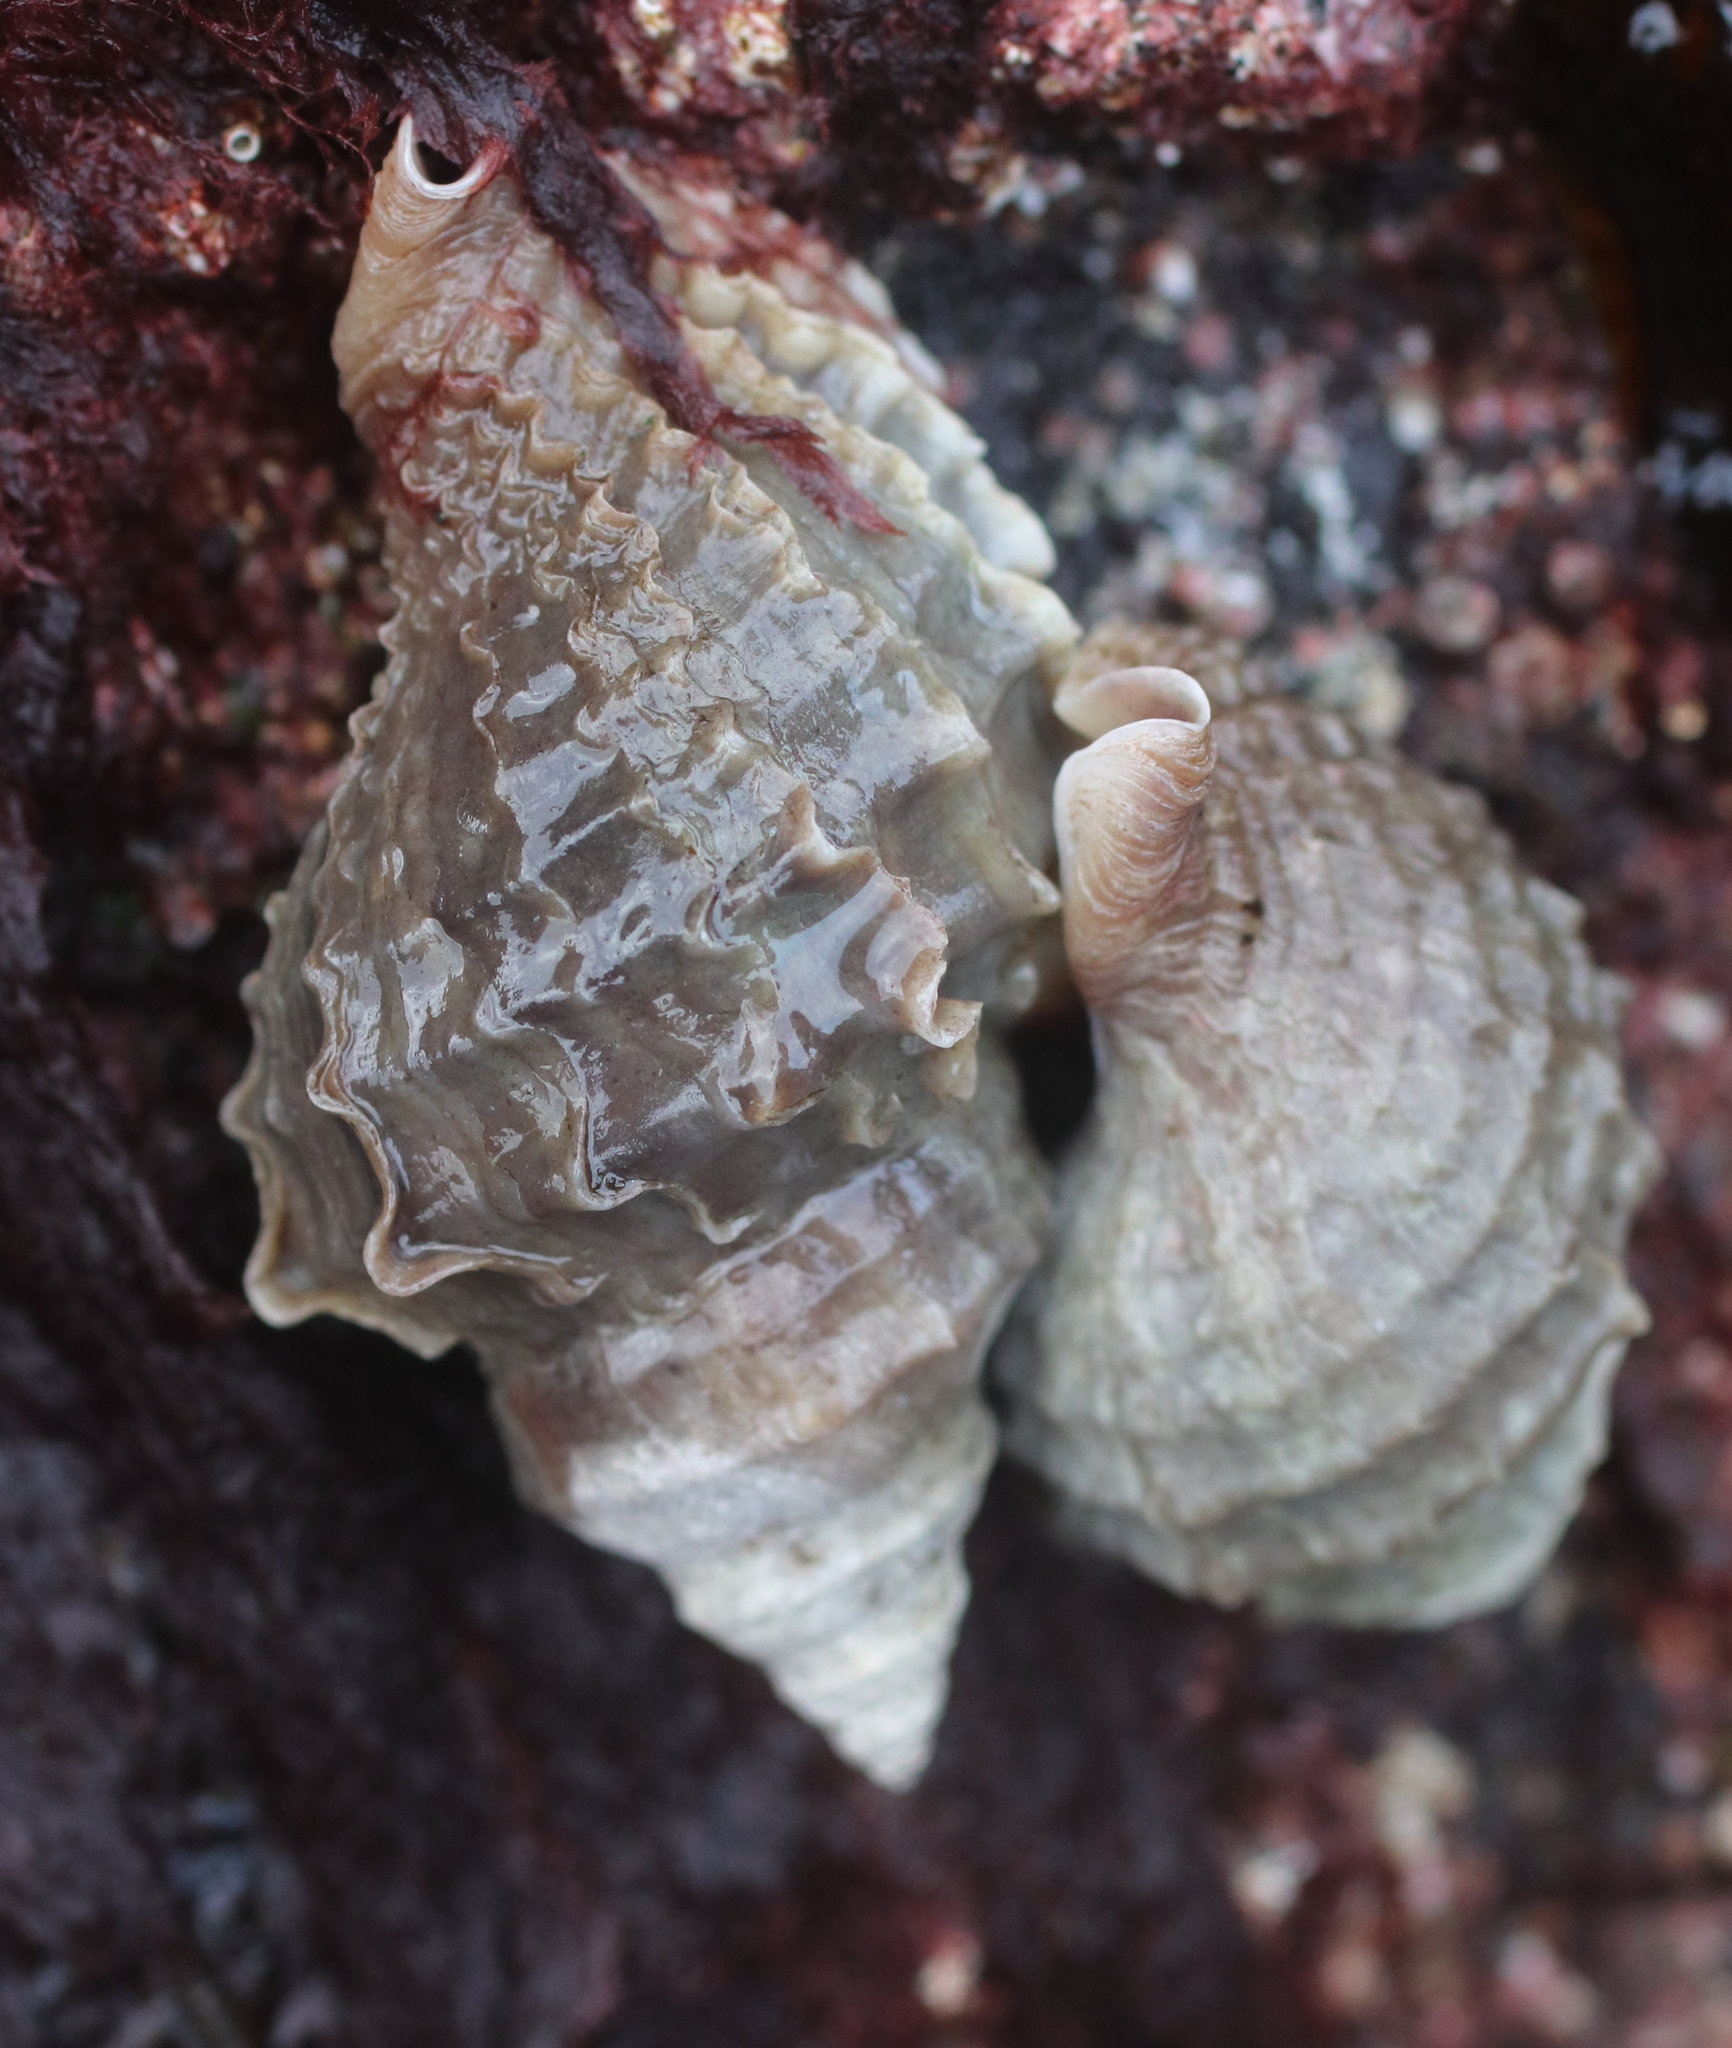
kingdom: Animalia
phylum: Mollusca
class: Gastropoda
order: Neogastropoda
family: Muricidae
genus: Nucella
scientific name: Nucella lamellosa
